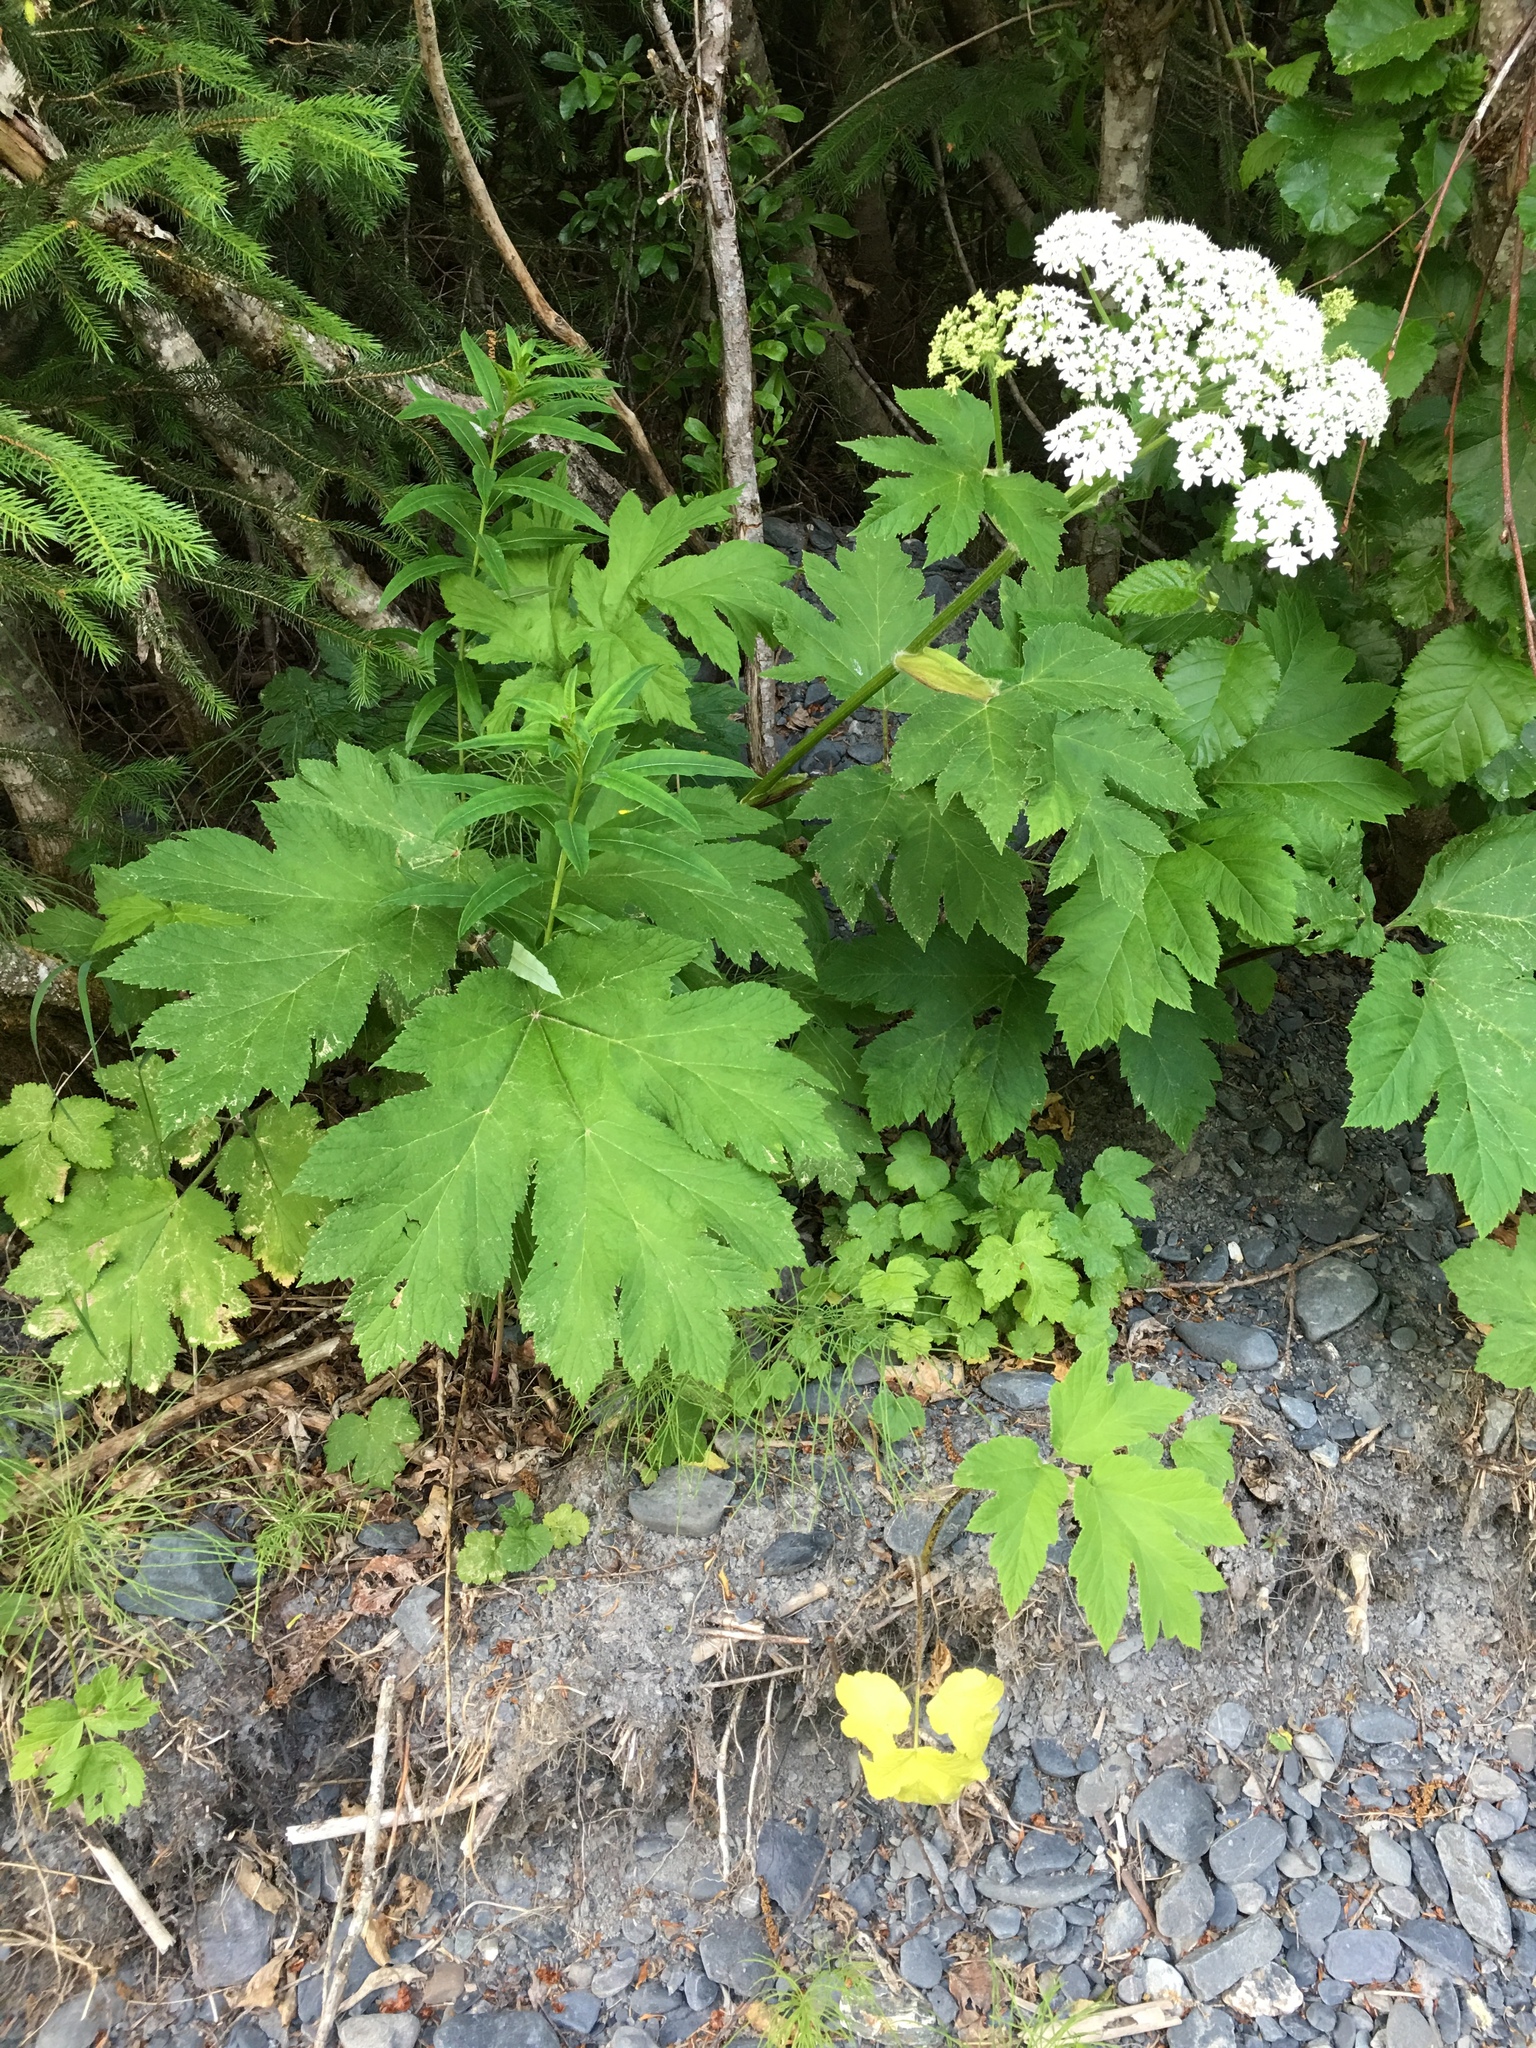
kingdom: Plantae
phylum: Tracheophyta
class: Magnoliopsida
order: Apiales
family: Apiaceae
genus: Heracleum
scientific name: Heracleum maximum
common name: American cow parsnip
